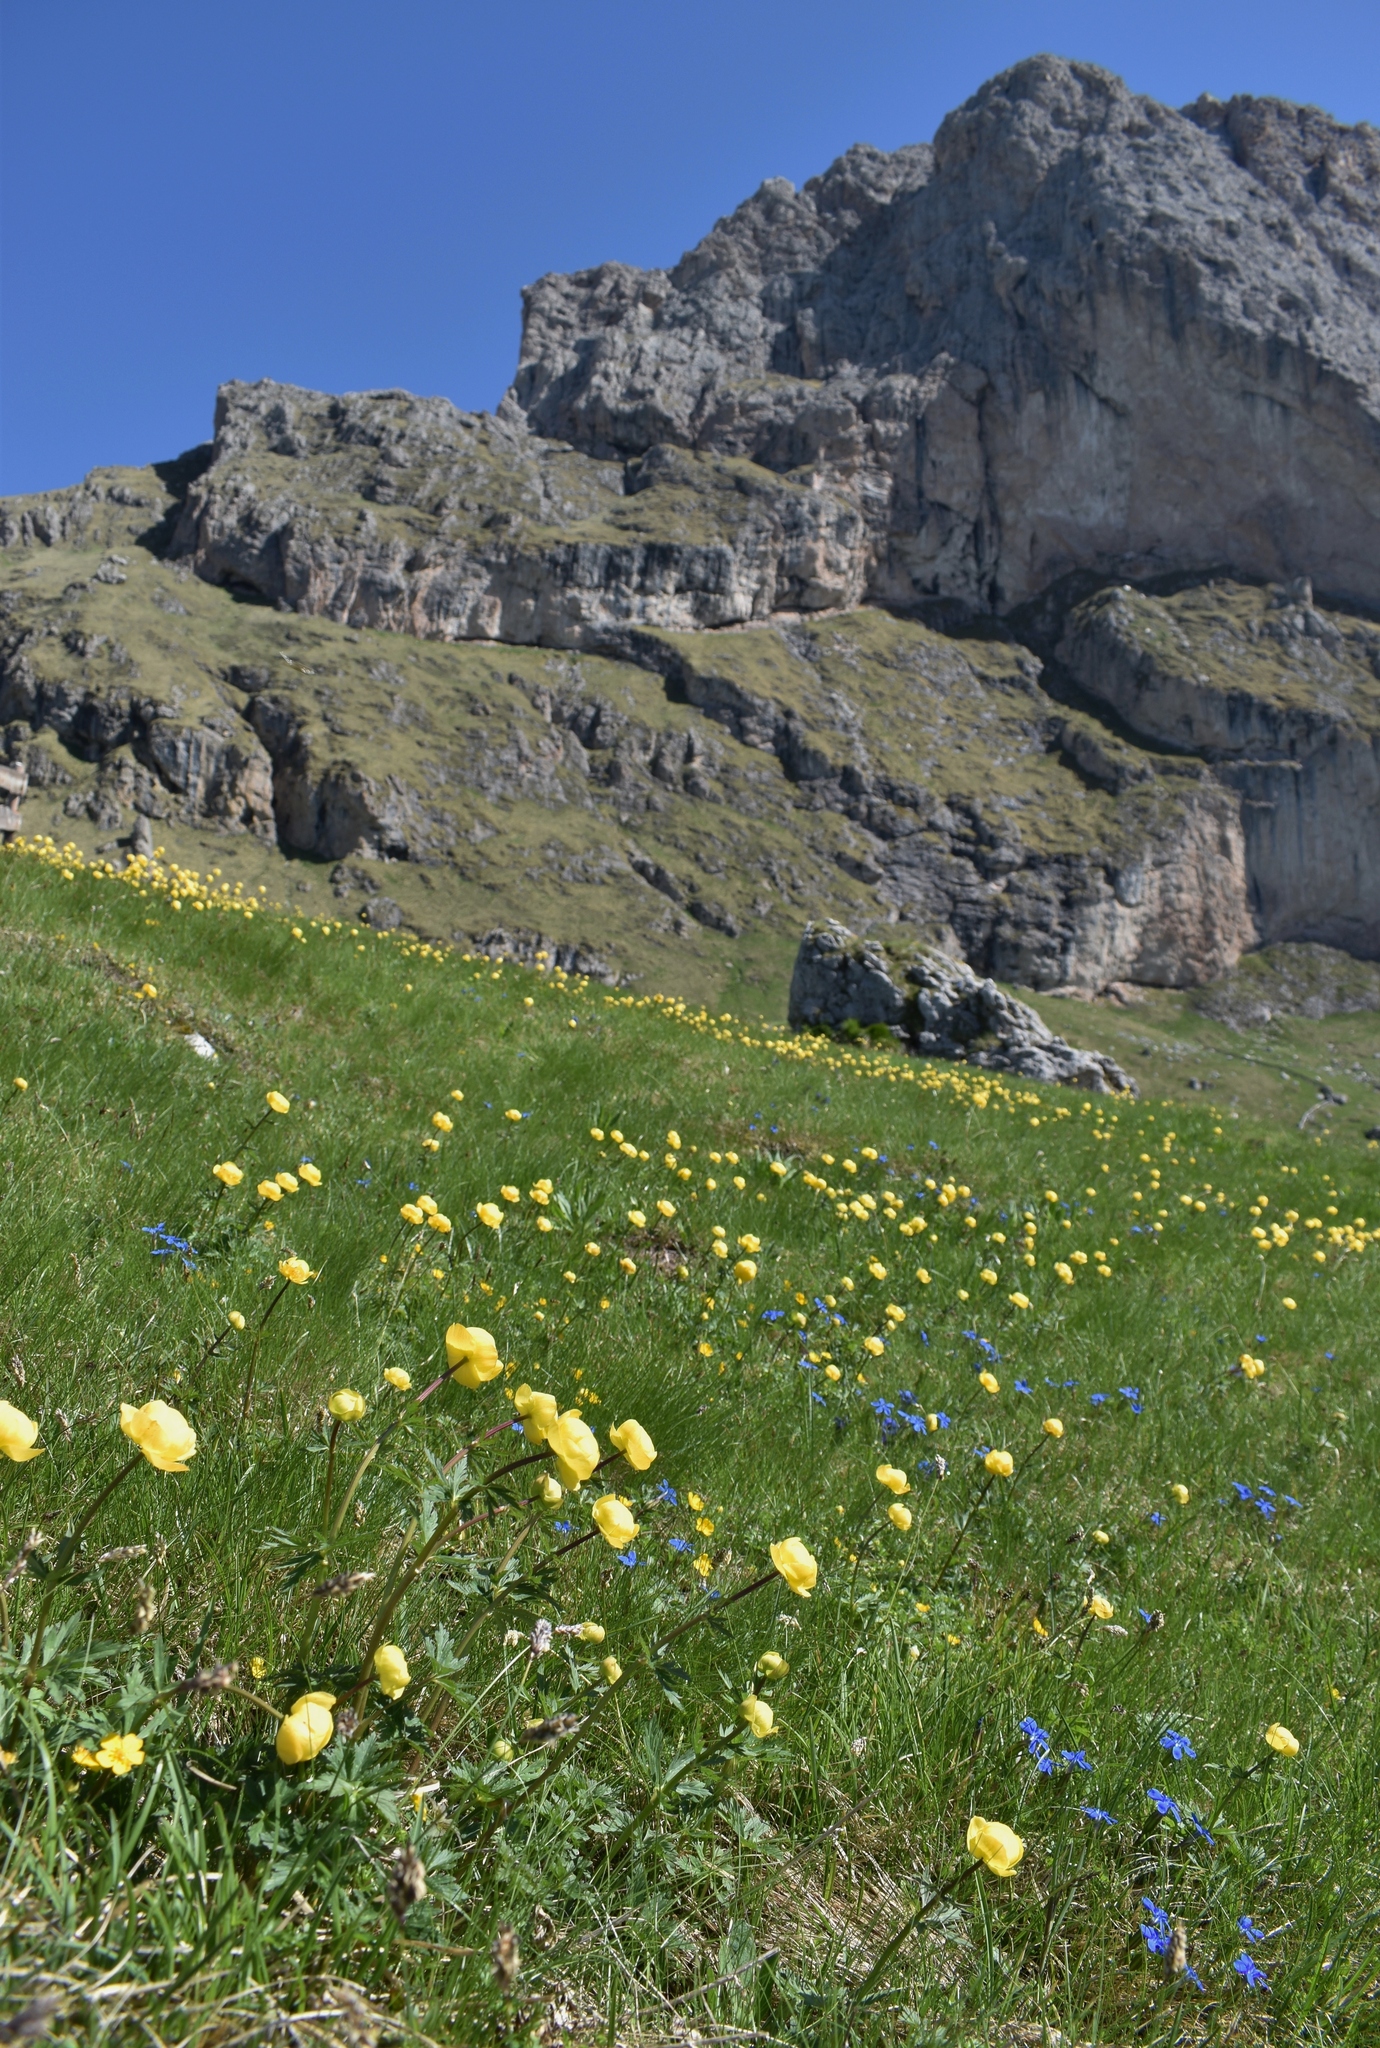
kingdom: Plantae
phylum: Tracheophyta
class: Magnoliopsida
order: Ranunculales
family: Ranunculaceae
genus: Trollius
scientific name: Trollius europaeus
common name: European globeflower
